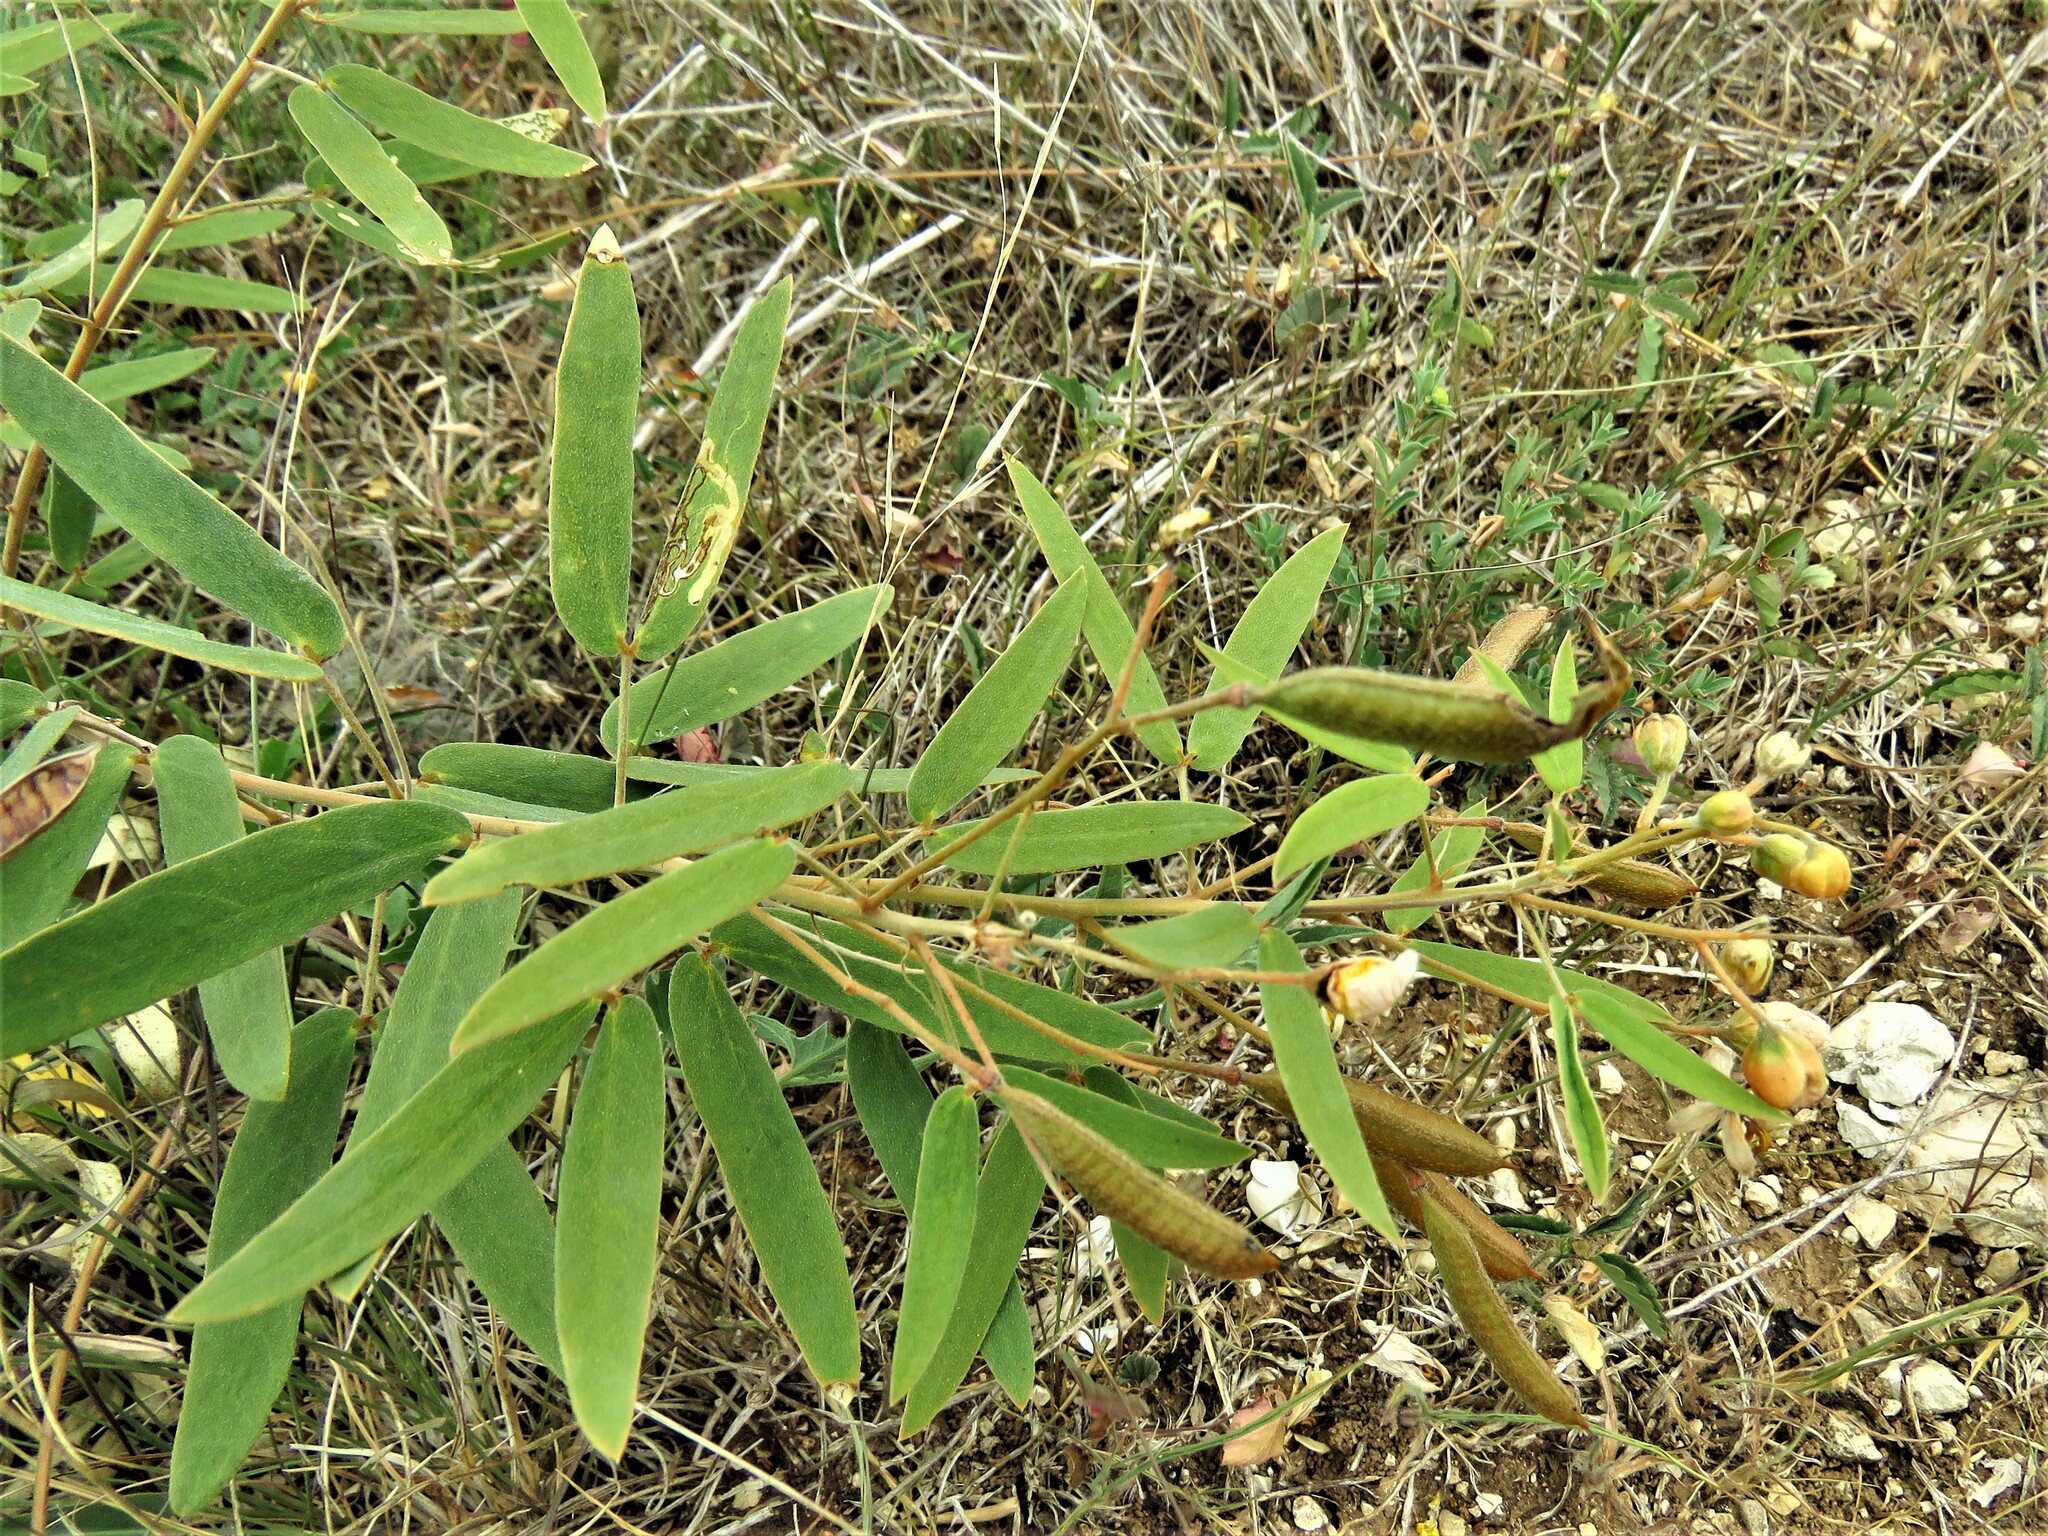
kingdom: Plantae
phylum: Tracheophyta
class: Magnoliopsida
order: Fabales
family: Fabaceae
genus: Senna
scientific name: Senna roemeriana
